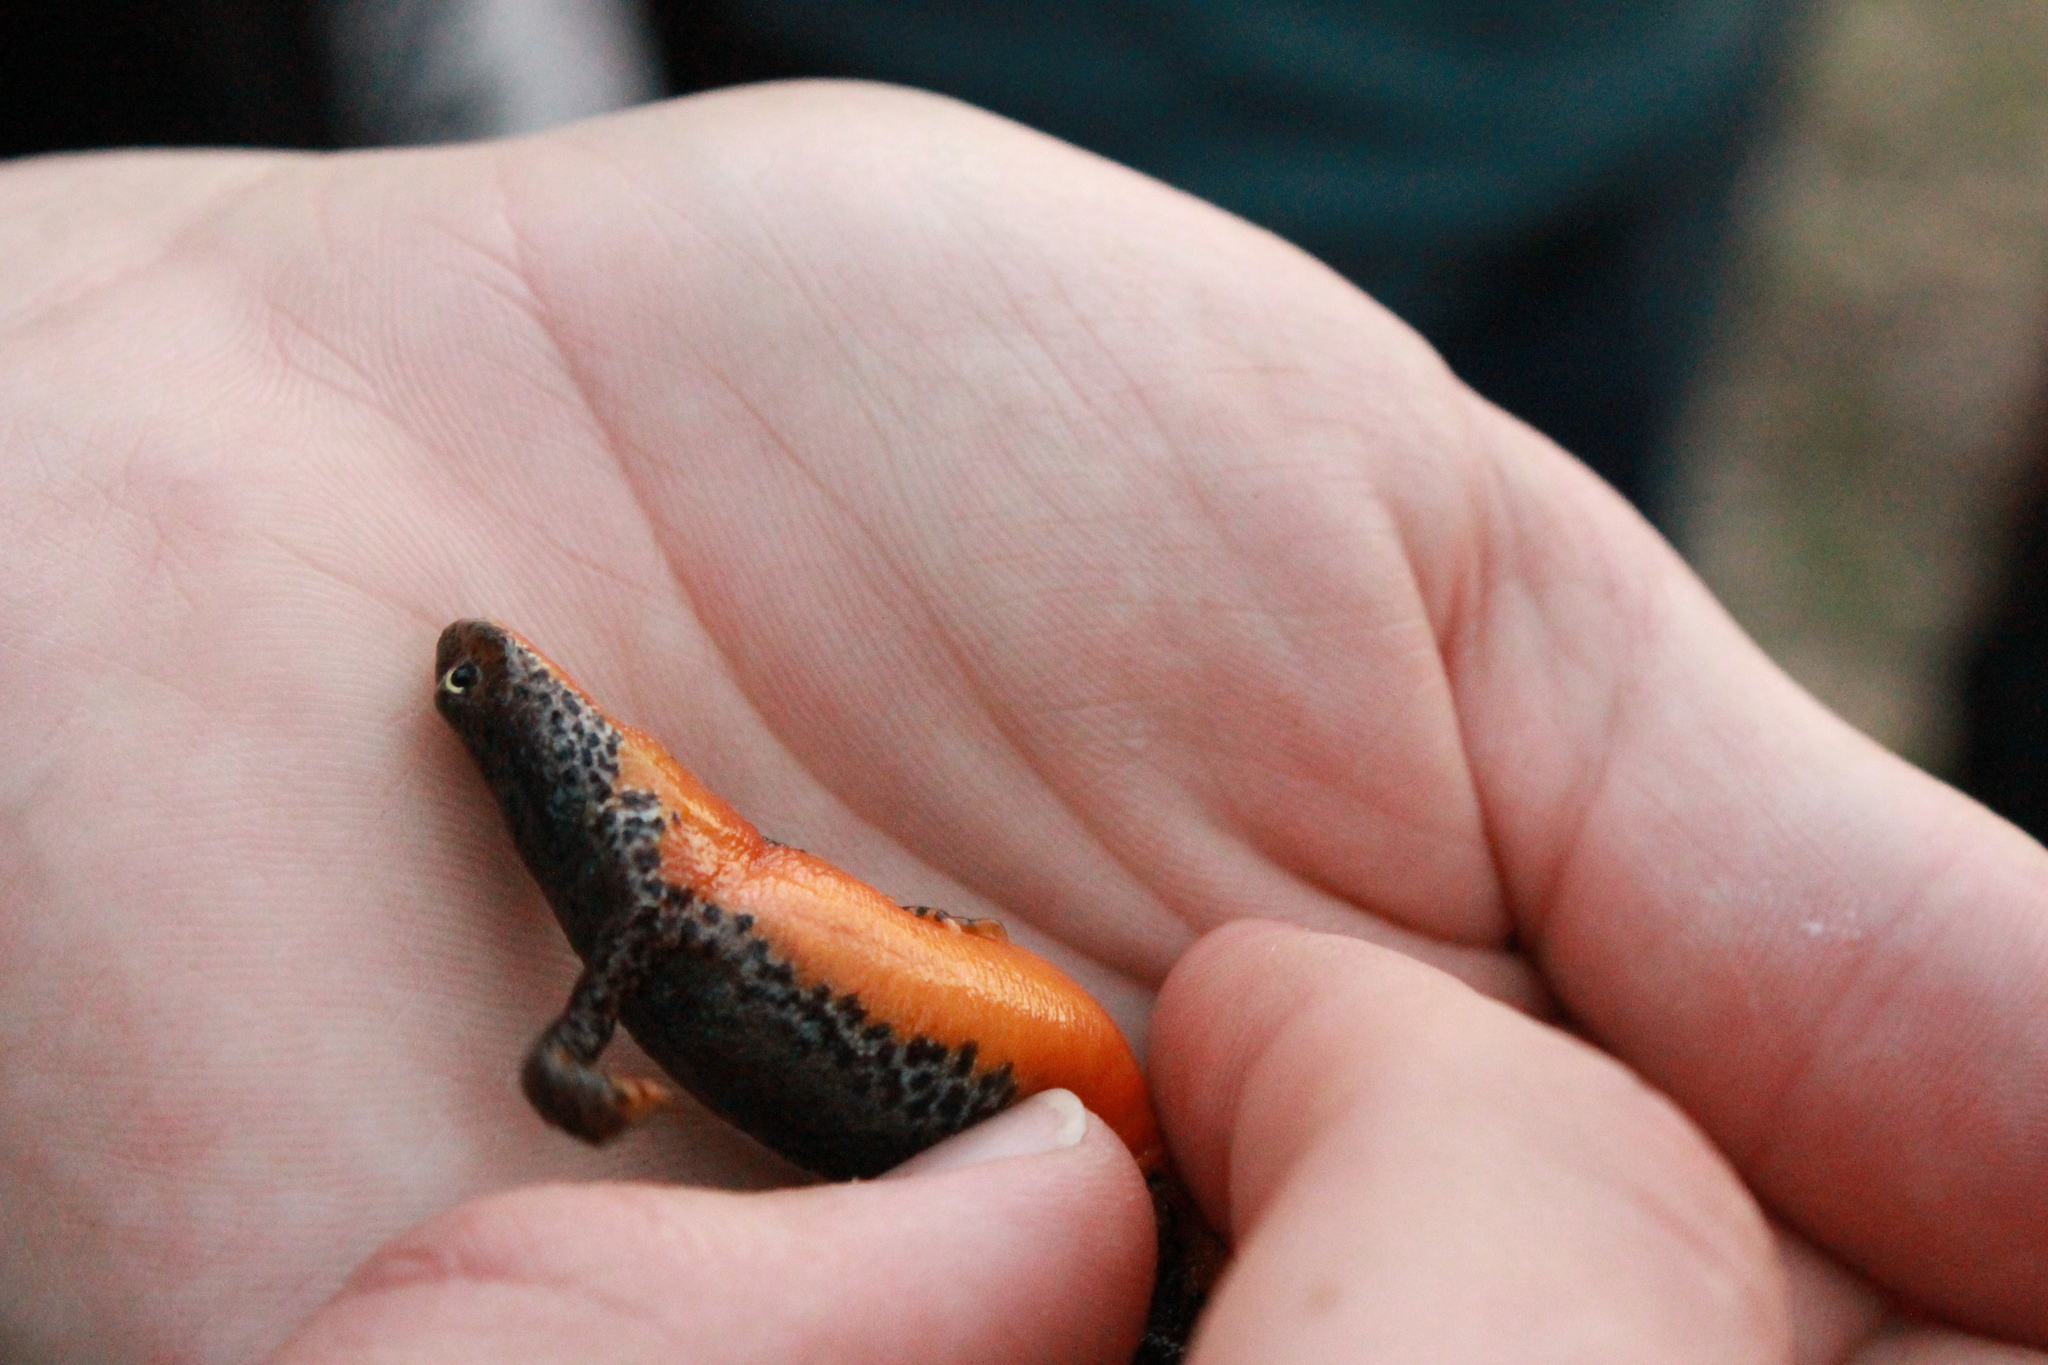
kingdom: Animalia
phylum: Chordata
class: Amphibia
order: Caudata
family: Salamandridae
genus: Ichthyosaura
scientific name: Ichthyosaura alpestris
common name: Alpine newt
